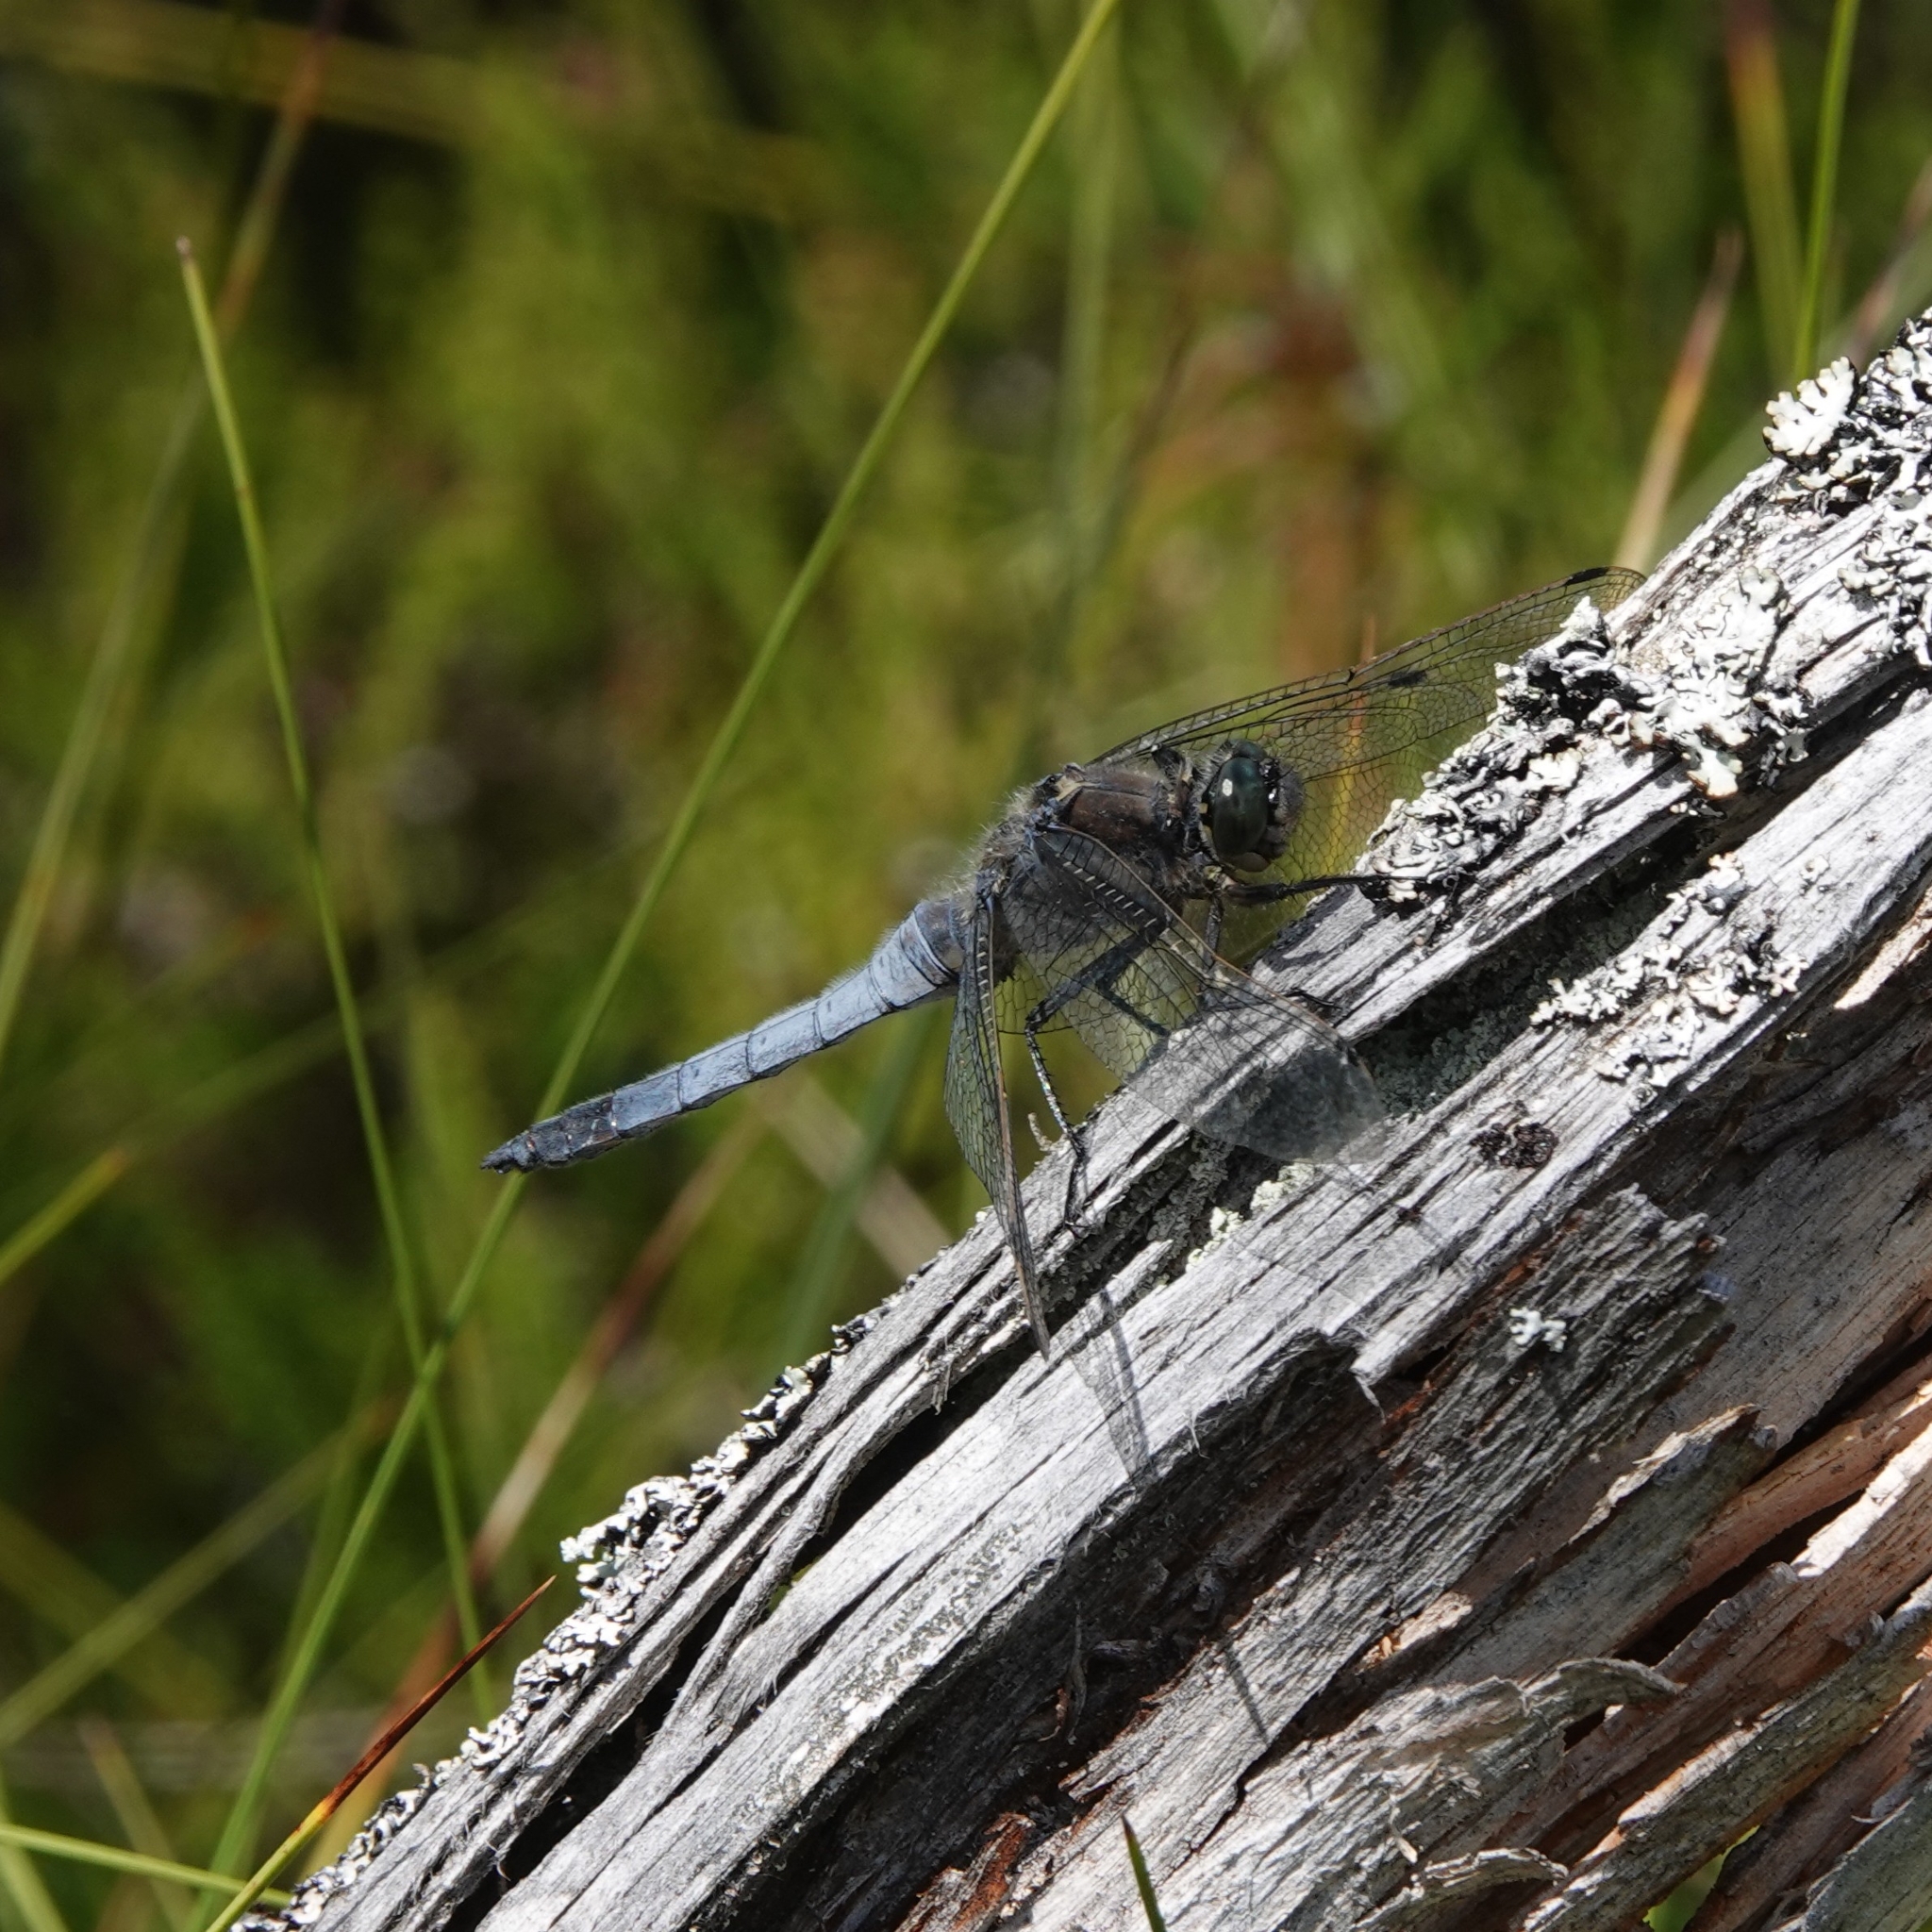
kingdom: Animalia
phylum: Arthropoda
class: Insecta
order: Odonata
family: Libellulidae
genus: Orthetrum
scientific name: Orthetrum cancellatum
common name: Black-tailed skimmer
